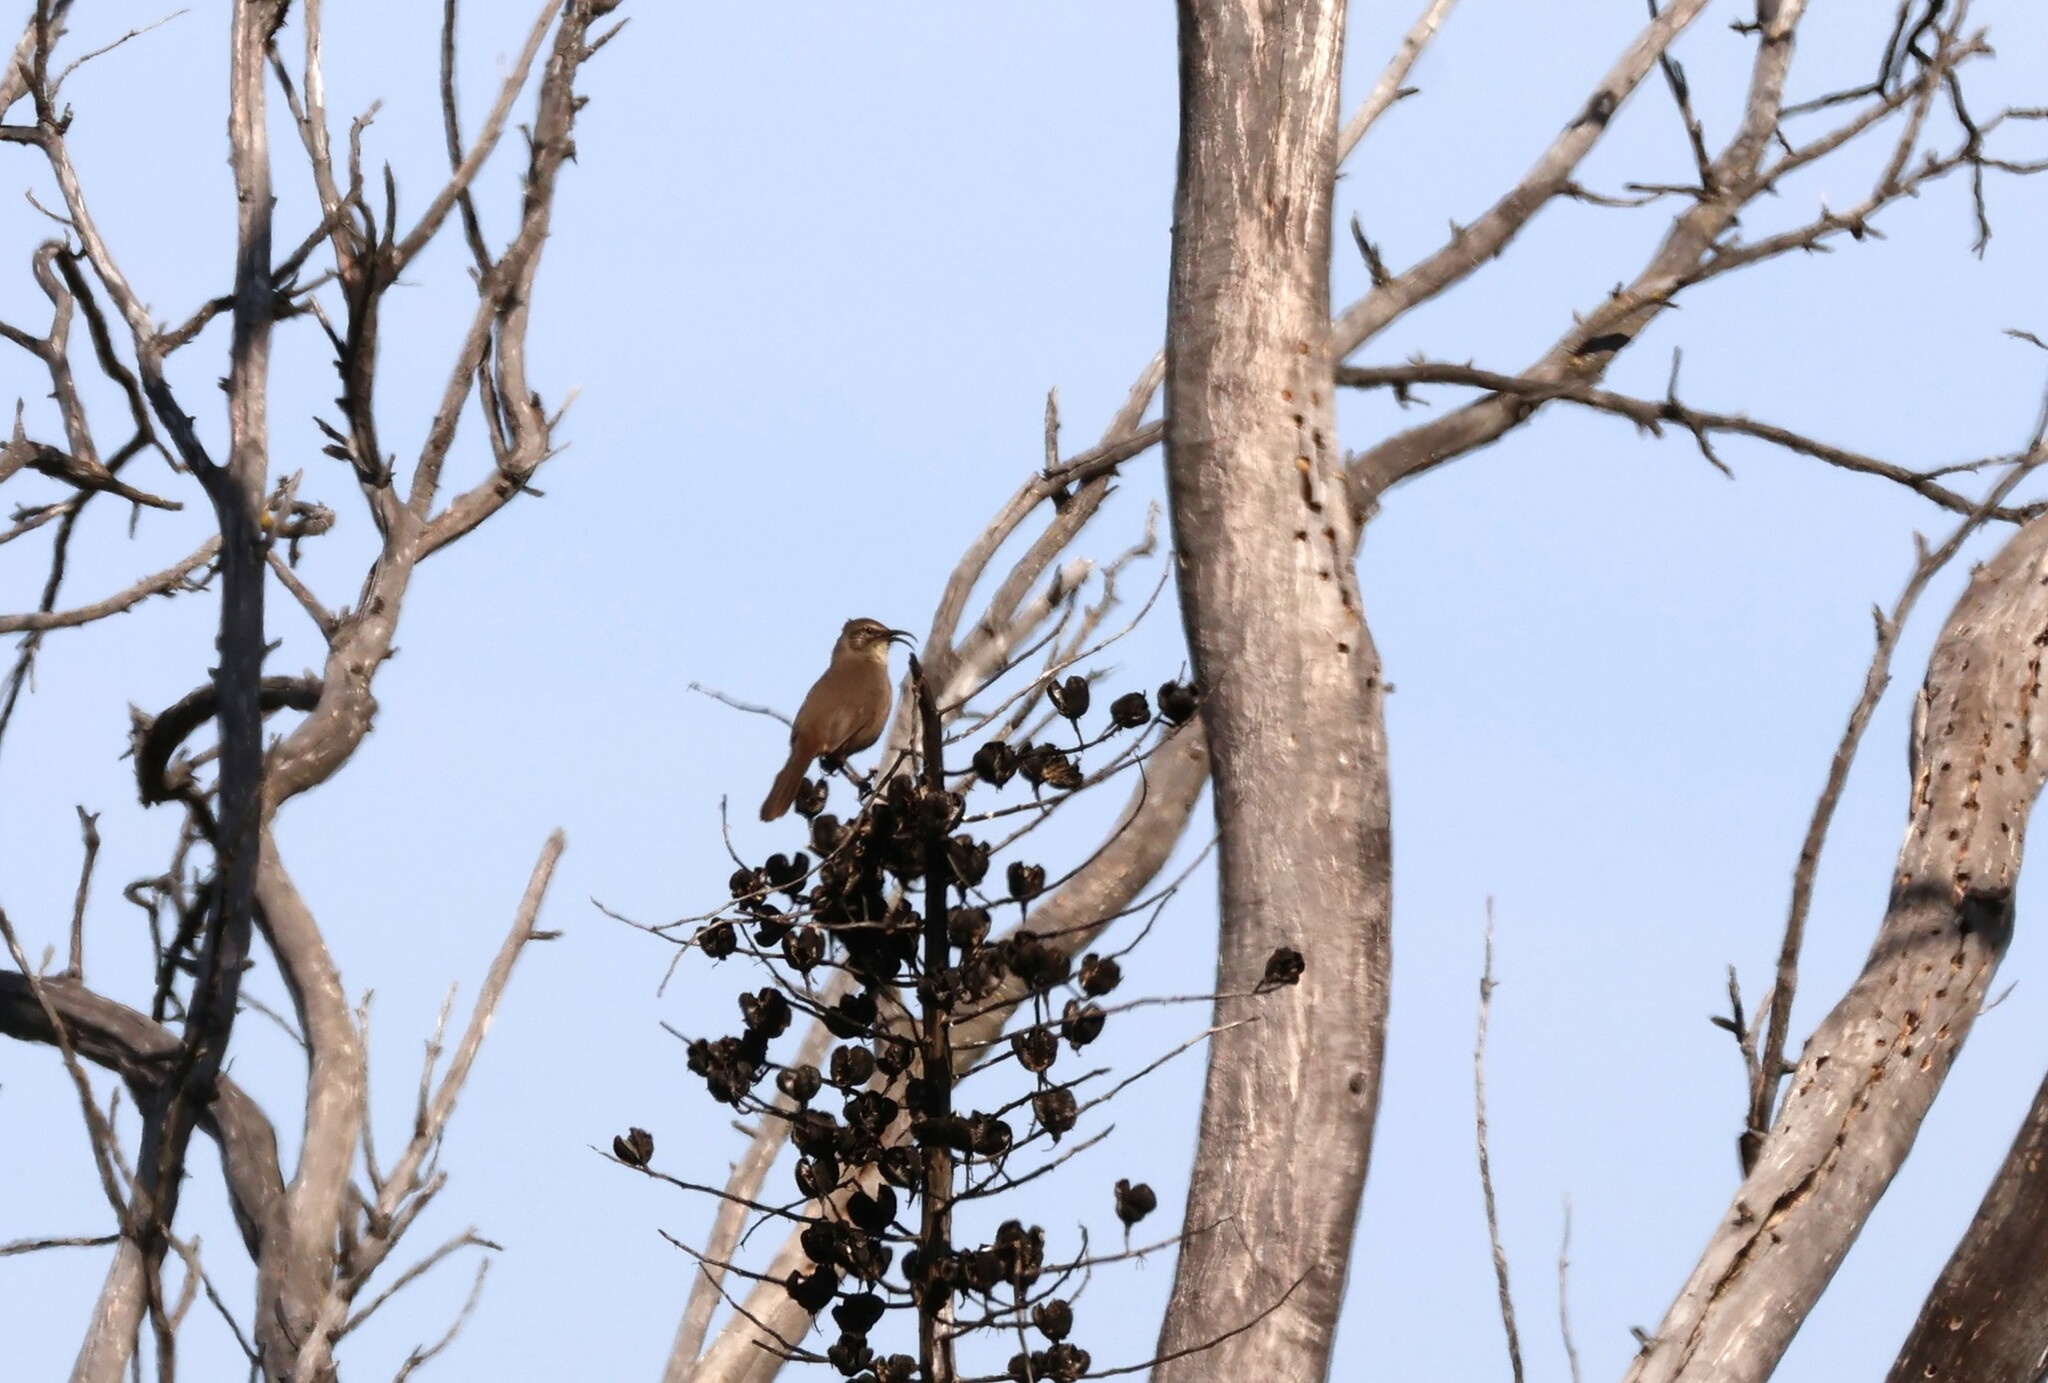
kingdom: Animalia
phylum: Chordata
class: Aves
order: Passeriformes
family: Mimidae
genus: Toxostoma
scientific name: Toxostoma redivivum
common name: California thrasher
